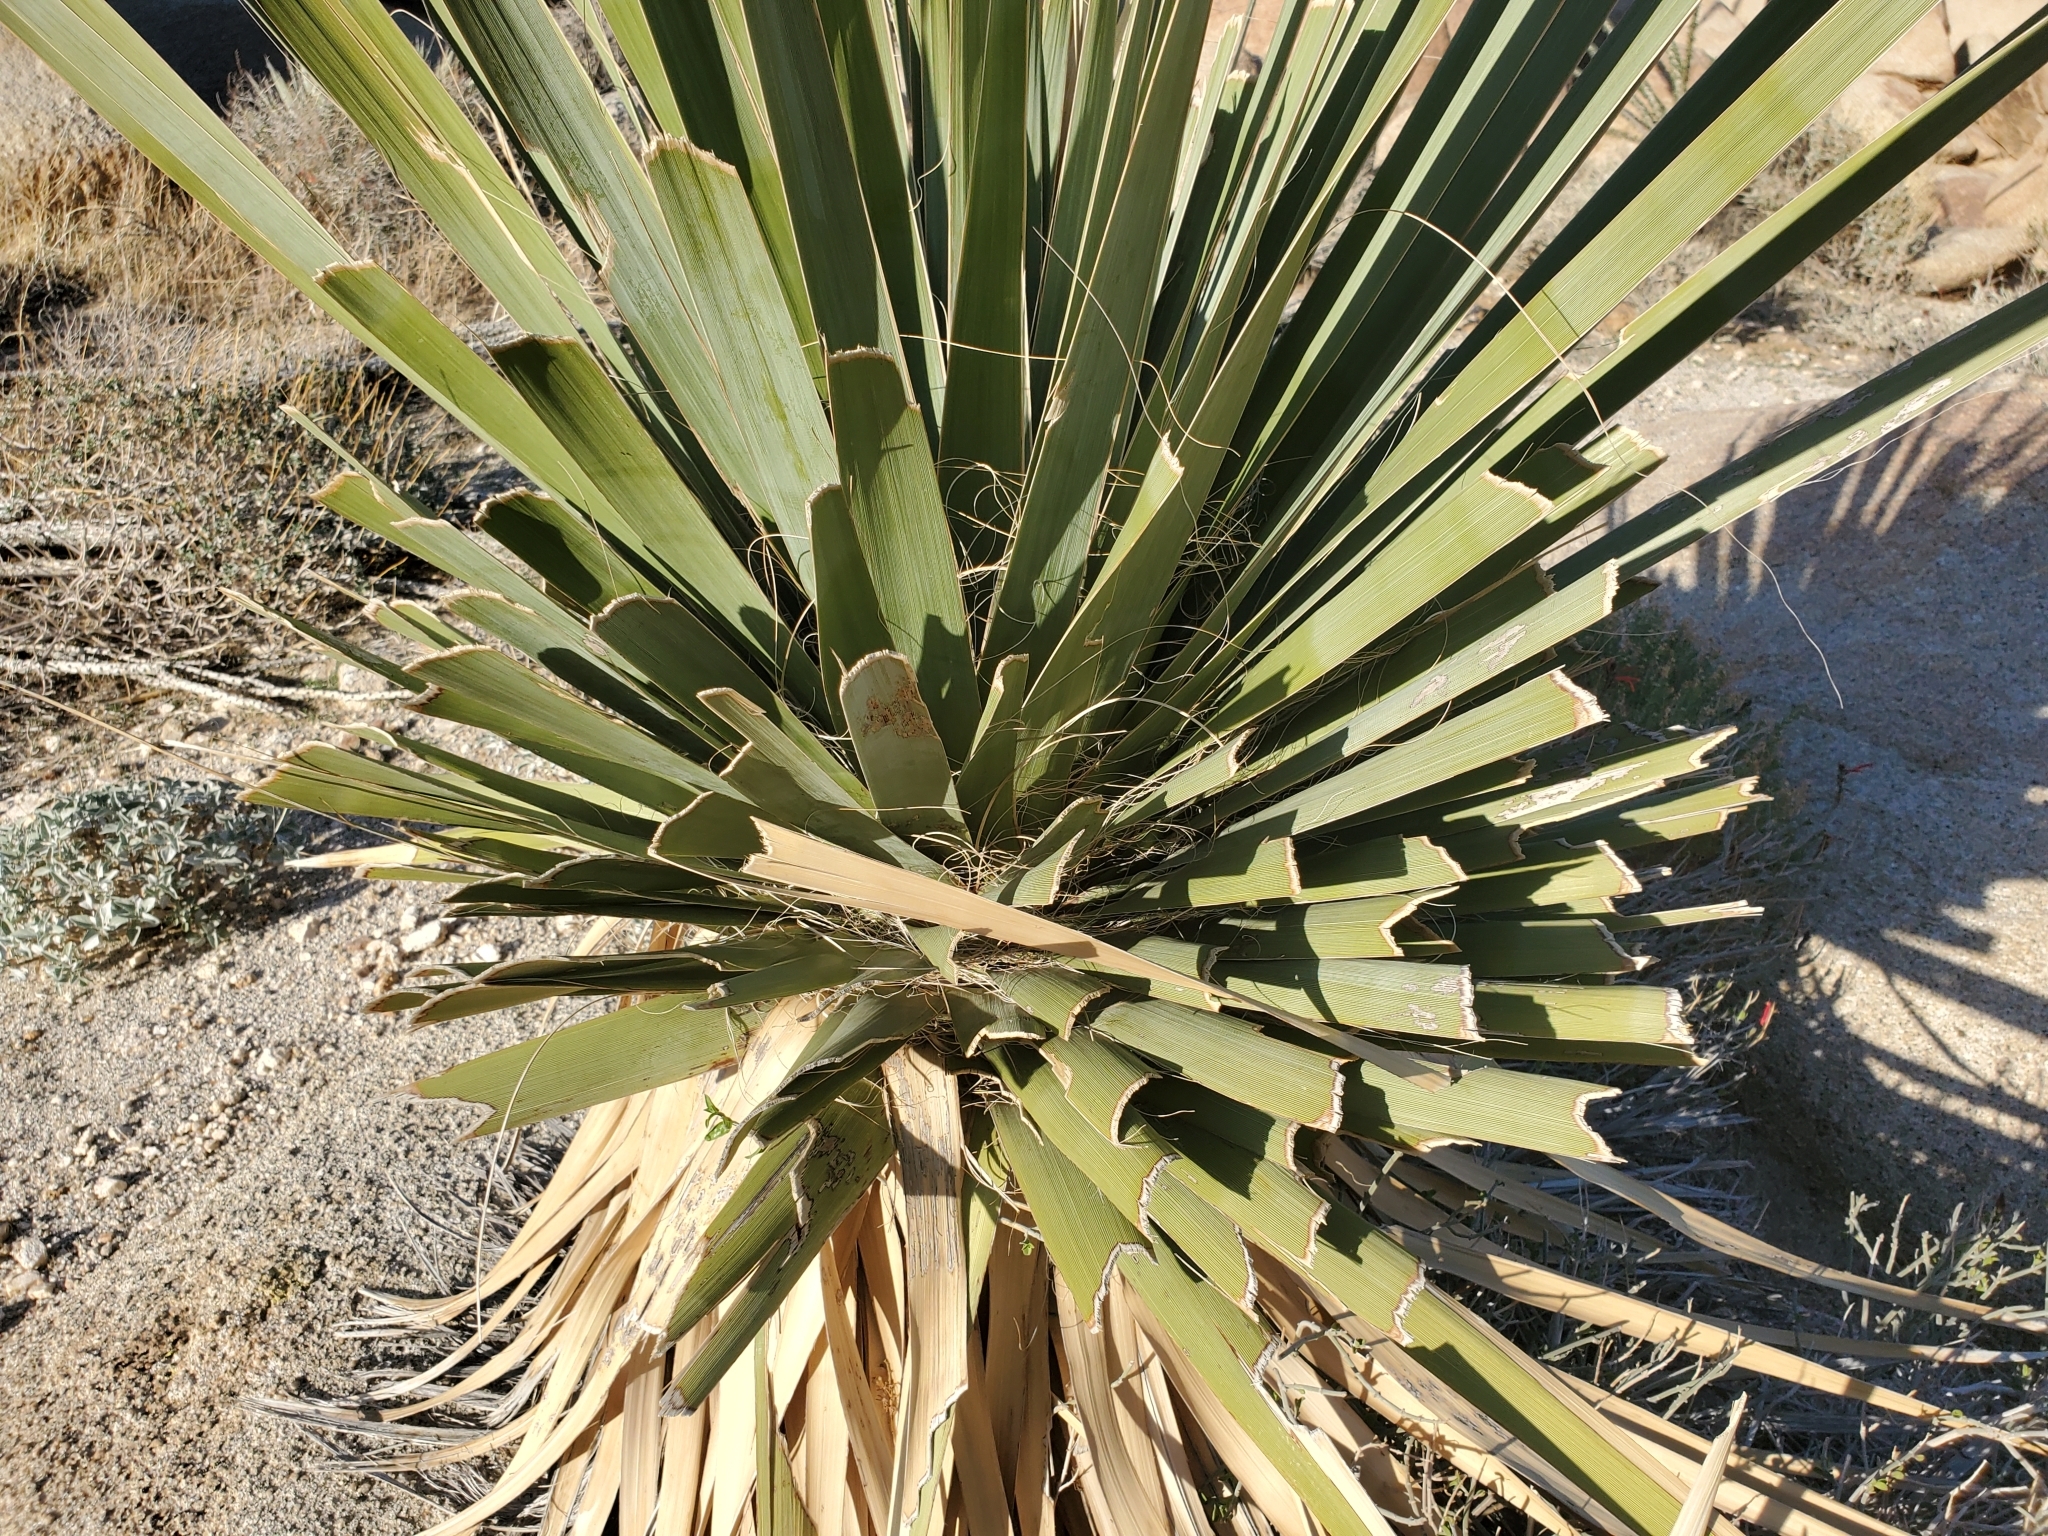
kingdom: Plantae
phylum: Tracheophyta
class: Liliopsida
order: Asparagales
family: Asparagaceae
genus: Nolina
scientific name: Nolina bigelovii
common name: Bigelow bear-grass
